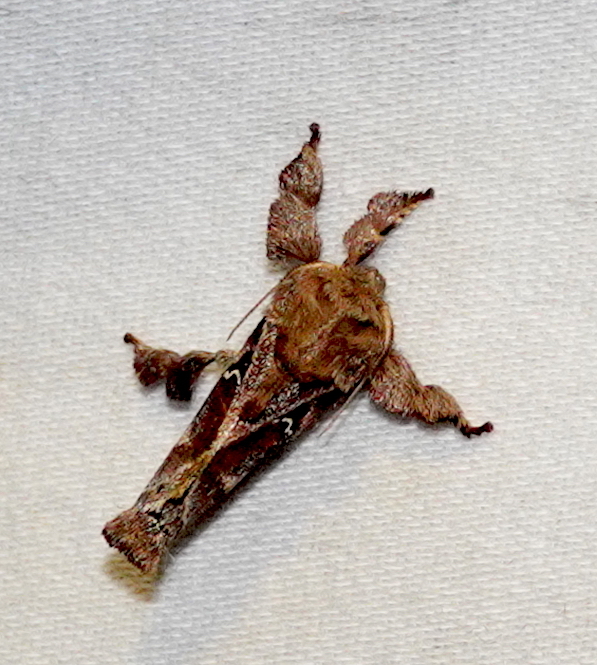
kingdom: Animalia
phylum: Arthropoda
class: Insecta
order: Lepidoptera
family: Limacodidae
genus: Euclea
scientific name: Euclea diversa
